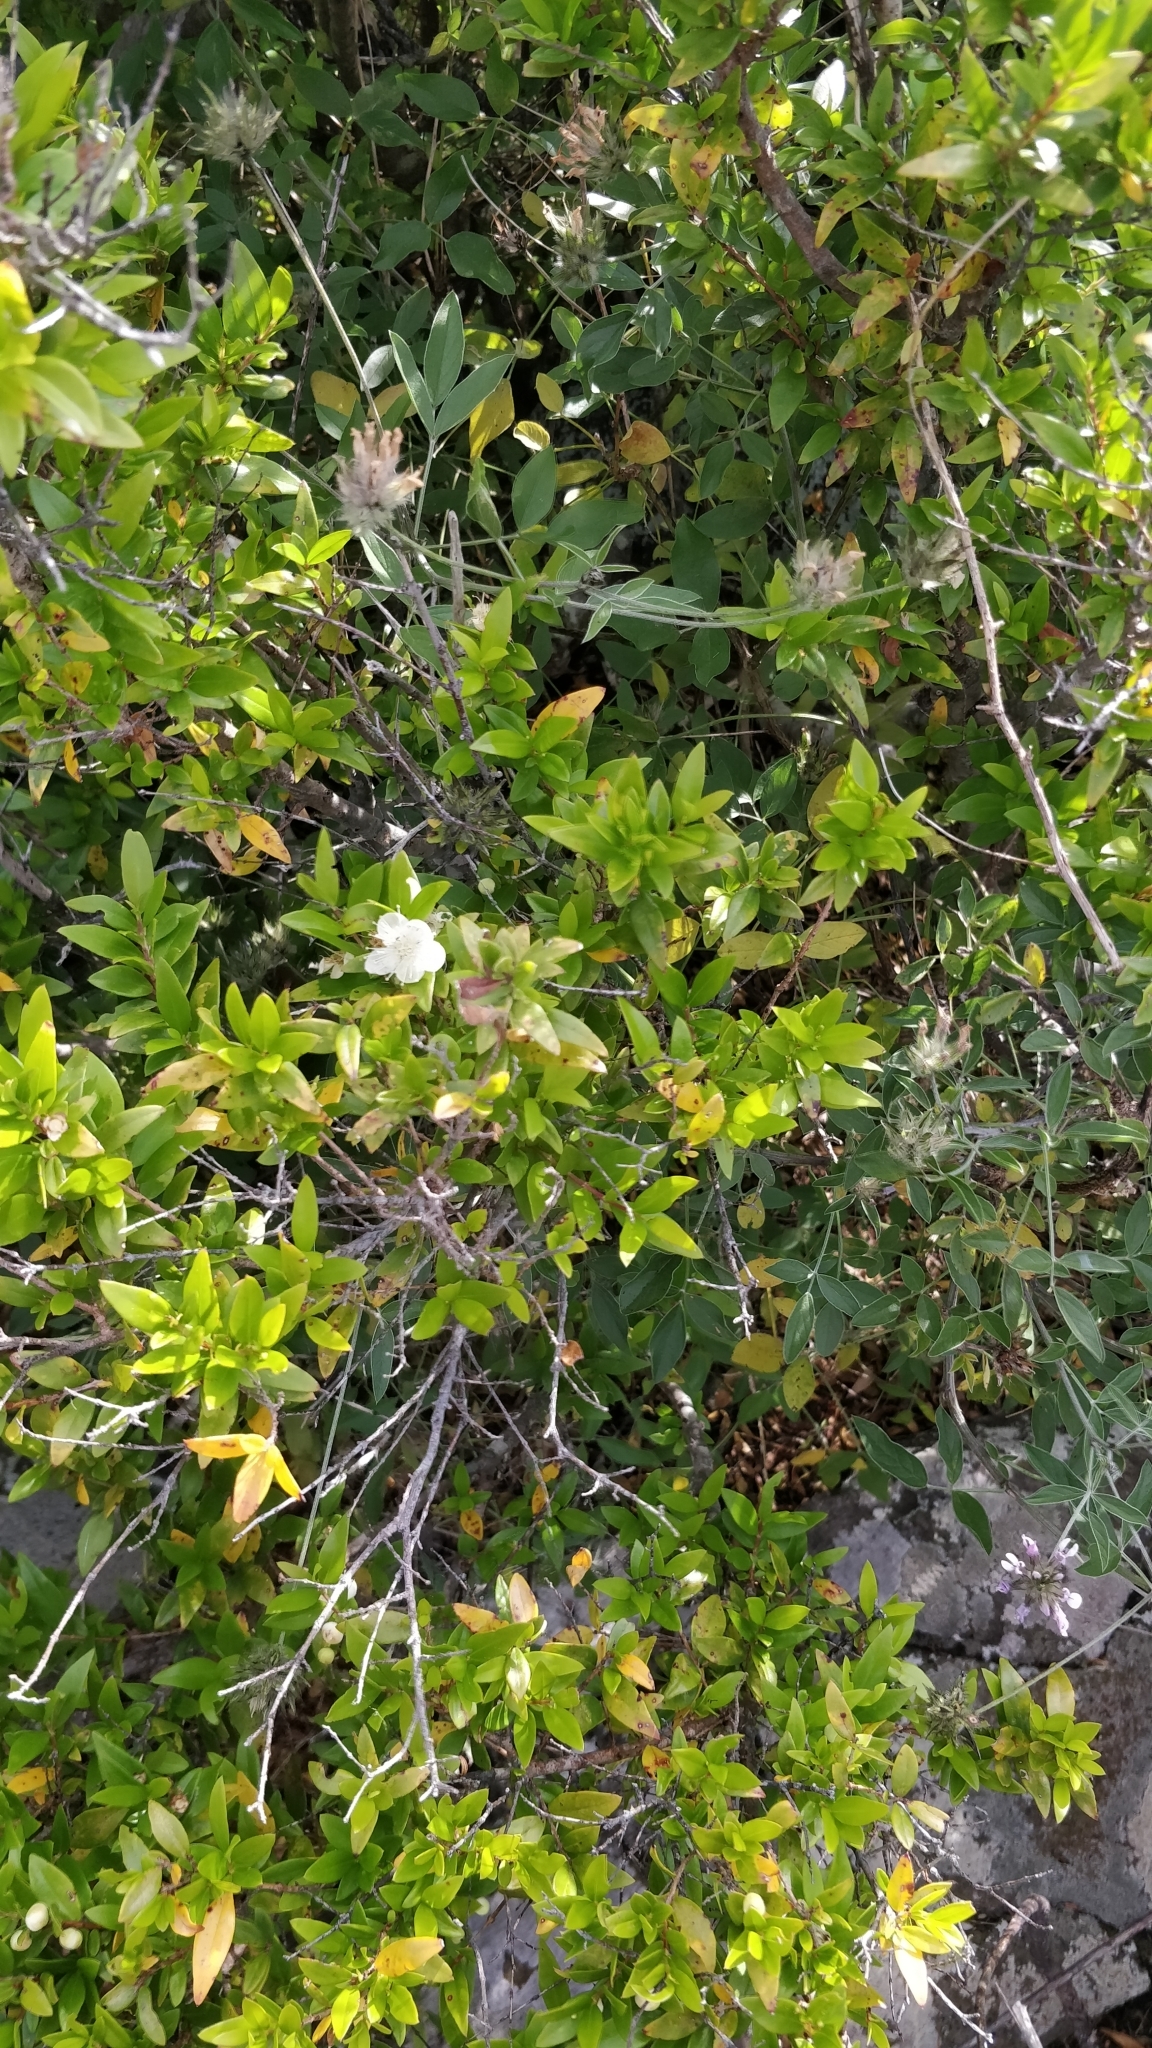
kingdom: Plantae
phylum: Tracheophyta
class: Magnoliopsida
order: Myrtales
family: Myrtaceae
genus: Myrtus
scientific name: Myrtus communis
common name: Myrtle
